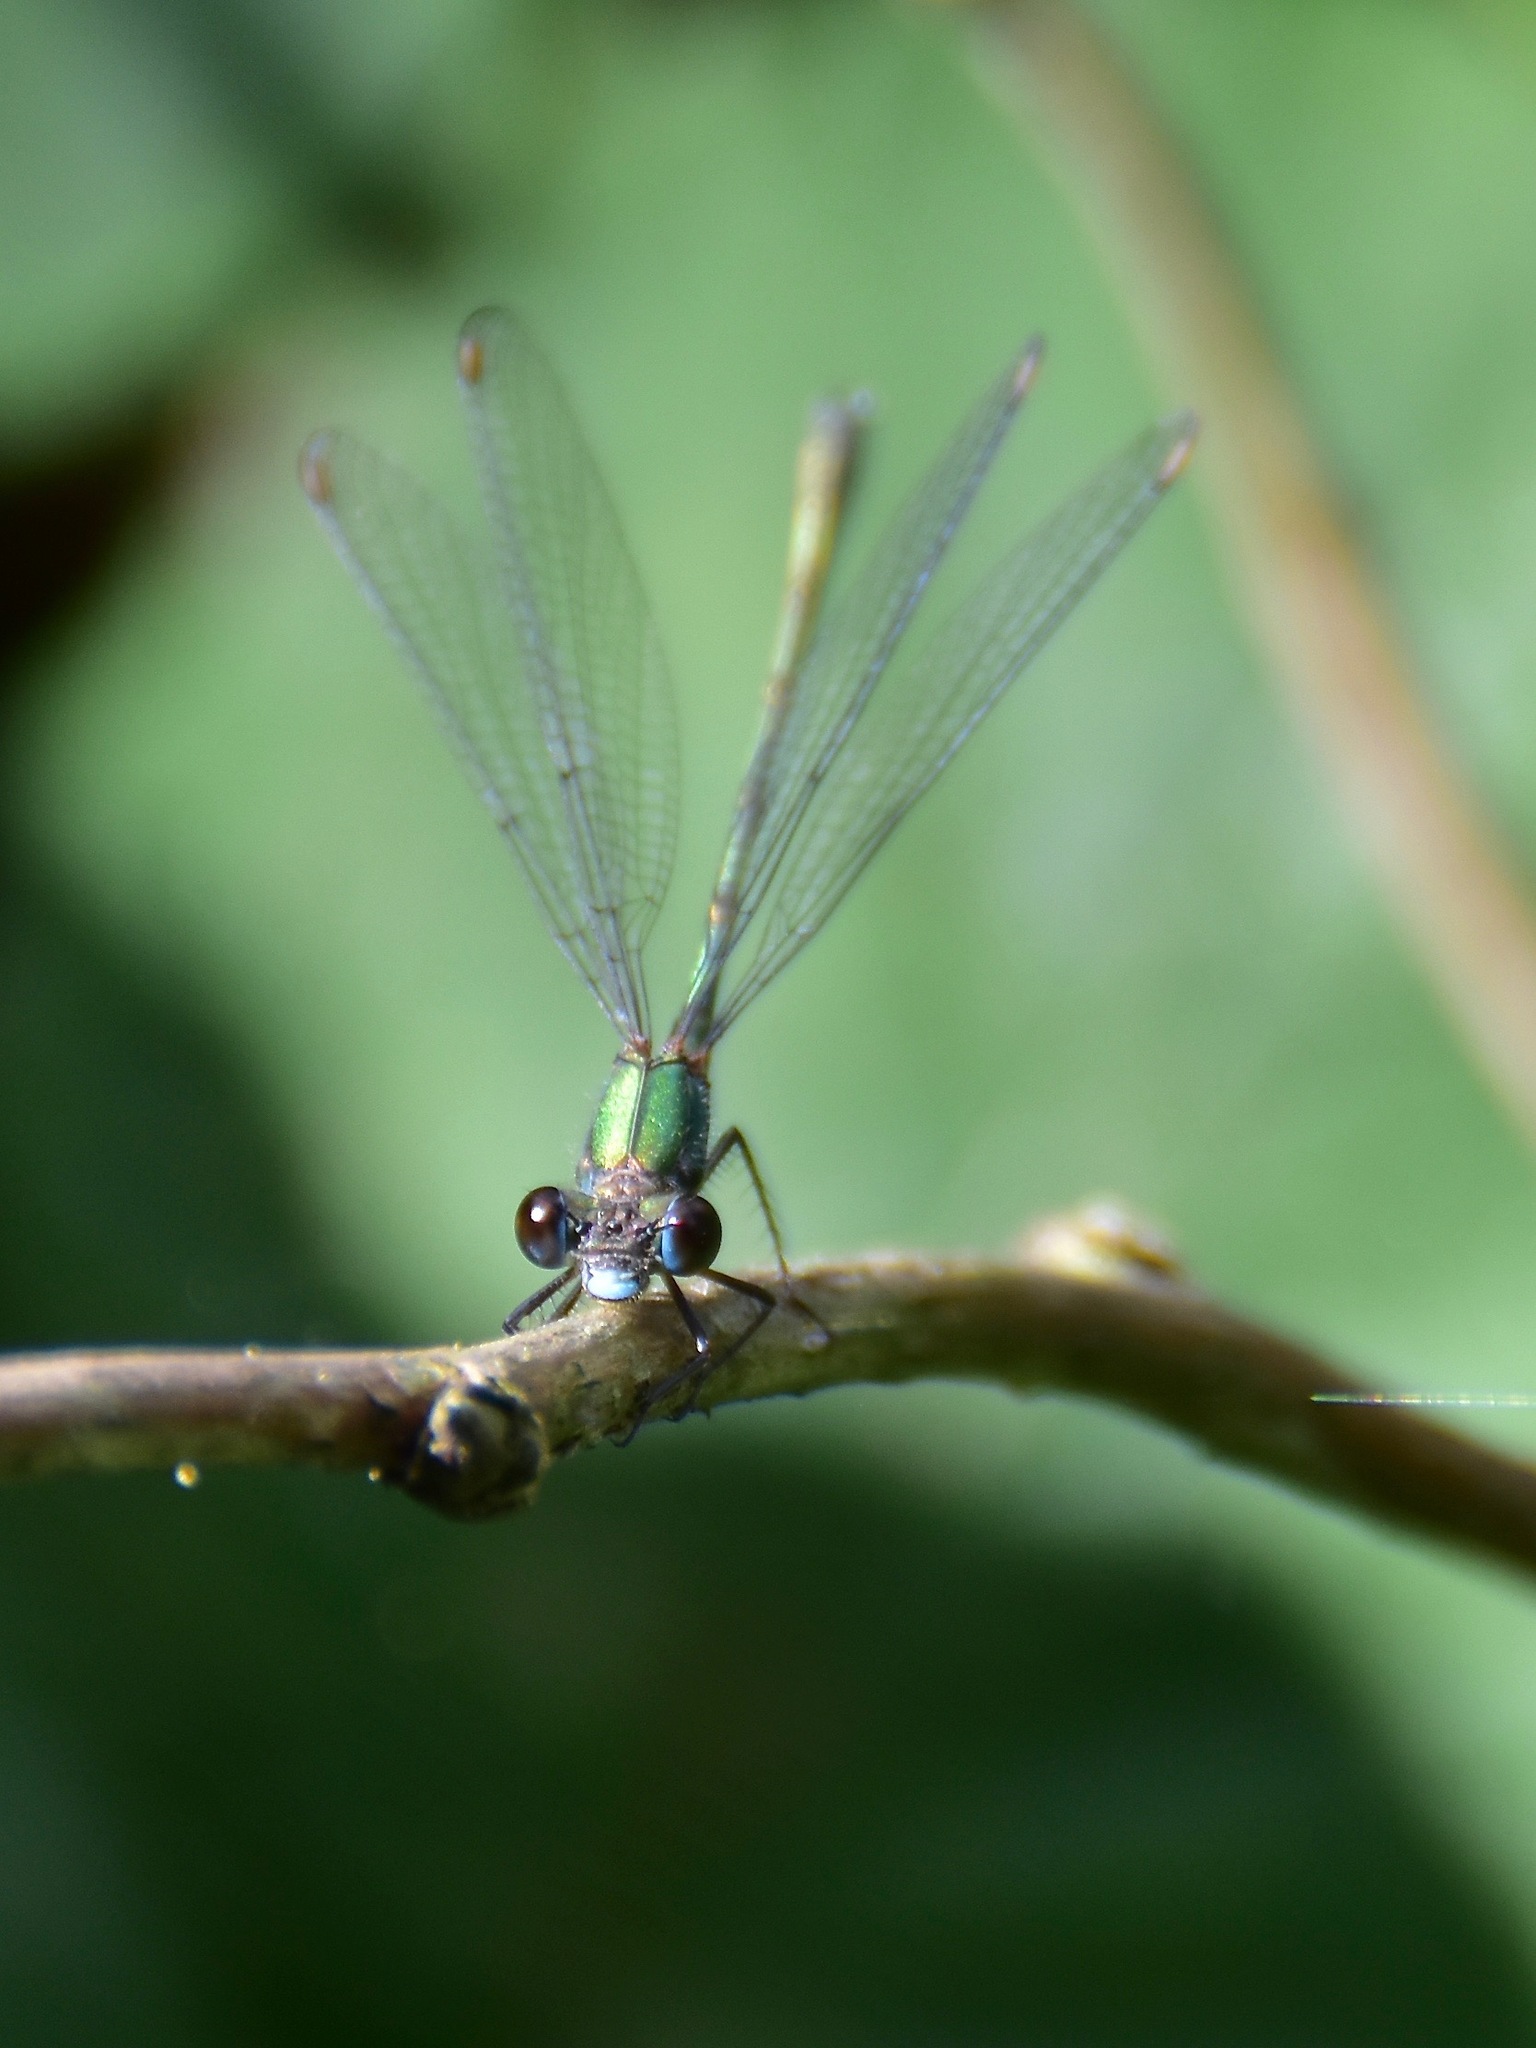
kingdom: Animalia
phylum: Arthropoda
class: Insecta
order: Odonata
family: Lestidae
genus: Chalcolestes
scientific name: Chalcolestes viridis
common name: Green emerald damselfly
